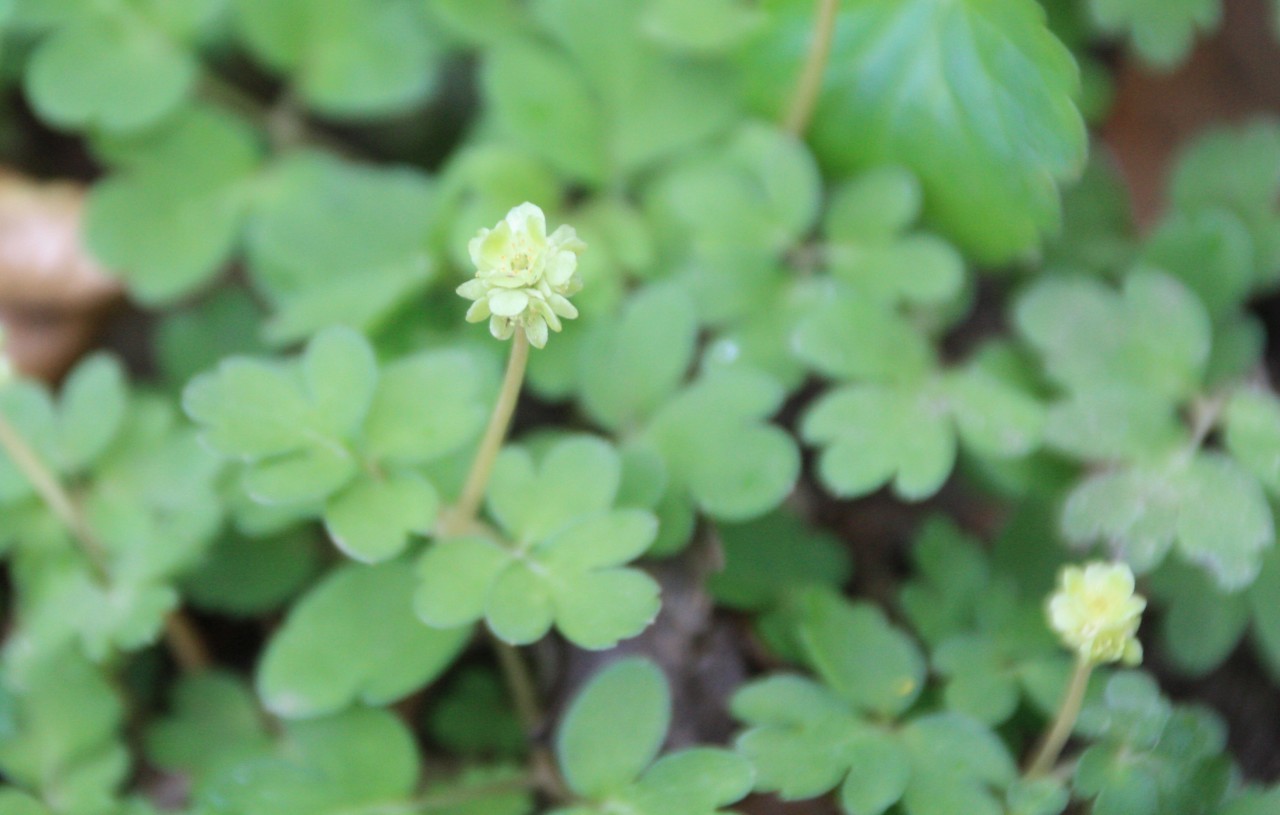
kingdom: Plantae
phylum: Tracheophyta
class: Magnoliopsida
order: Dipsacales
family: Viburnaceae
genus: Adoxa
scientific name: Adoxa moschatellina
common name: Moschatel
